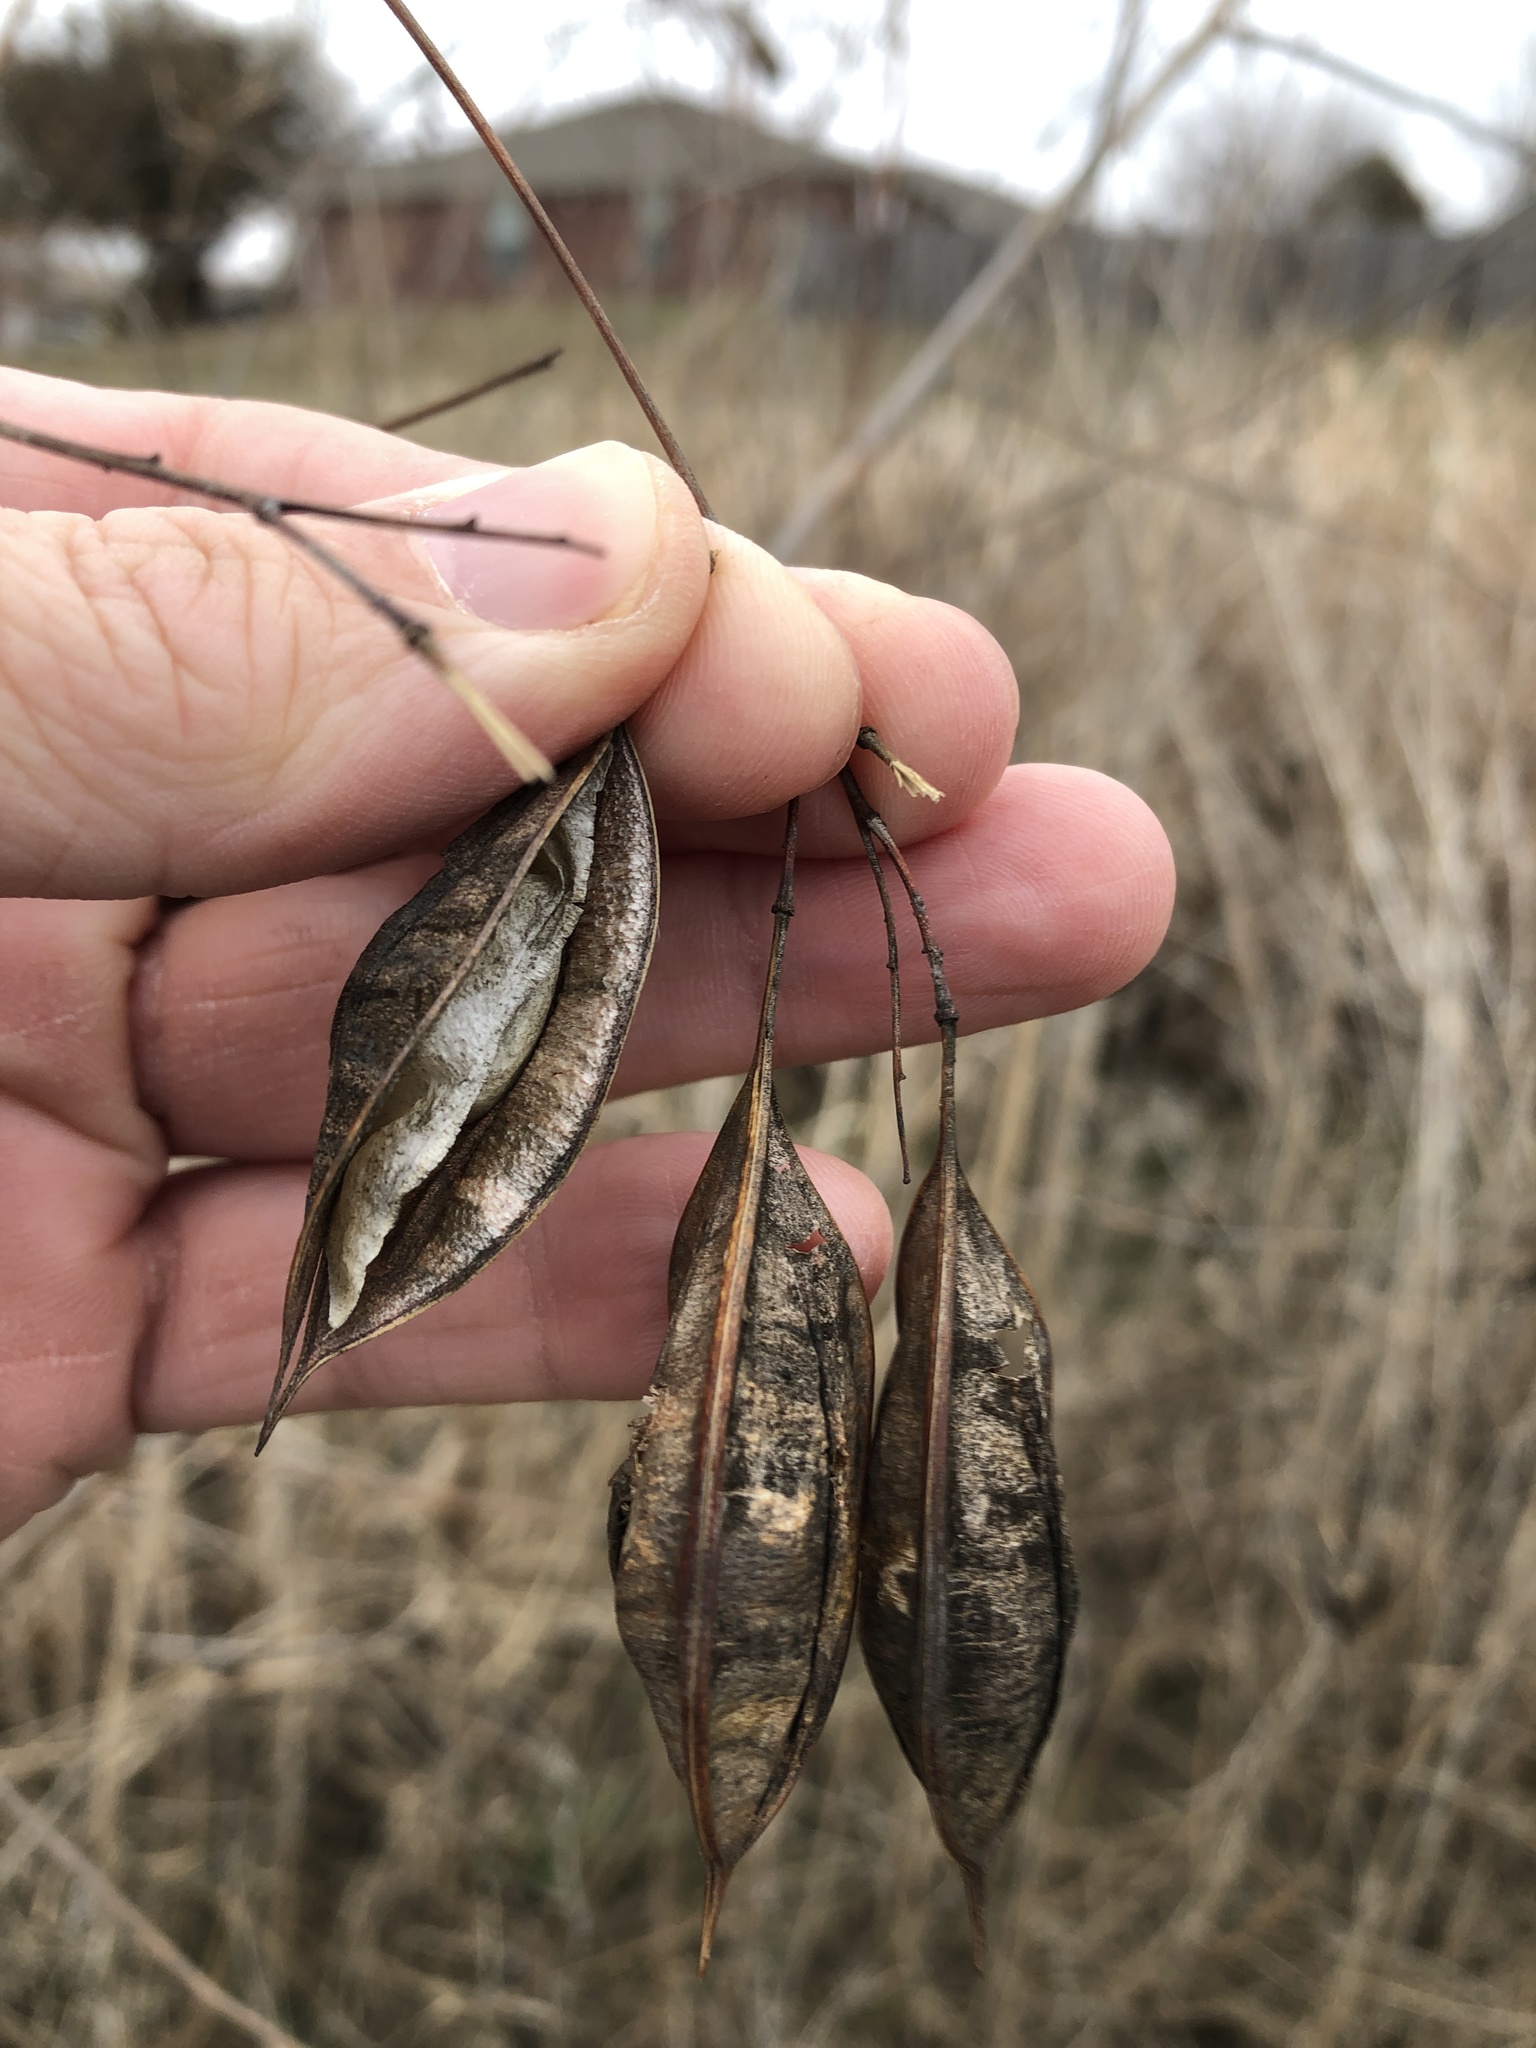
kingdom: Plantae
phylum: Tracheophyta
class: Magnoliopsida
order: Fabales
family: Fabaceae
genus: Sesbania
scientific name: Sesbania vesicaria
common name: Bagpod
